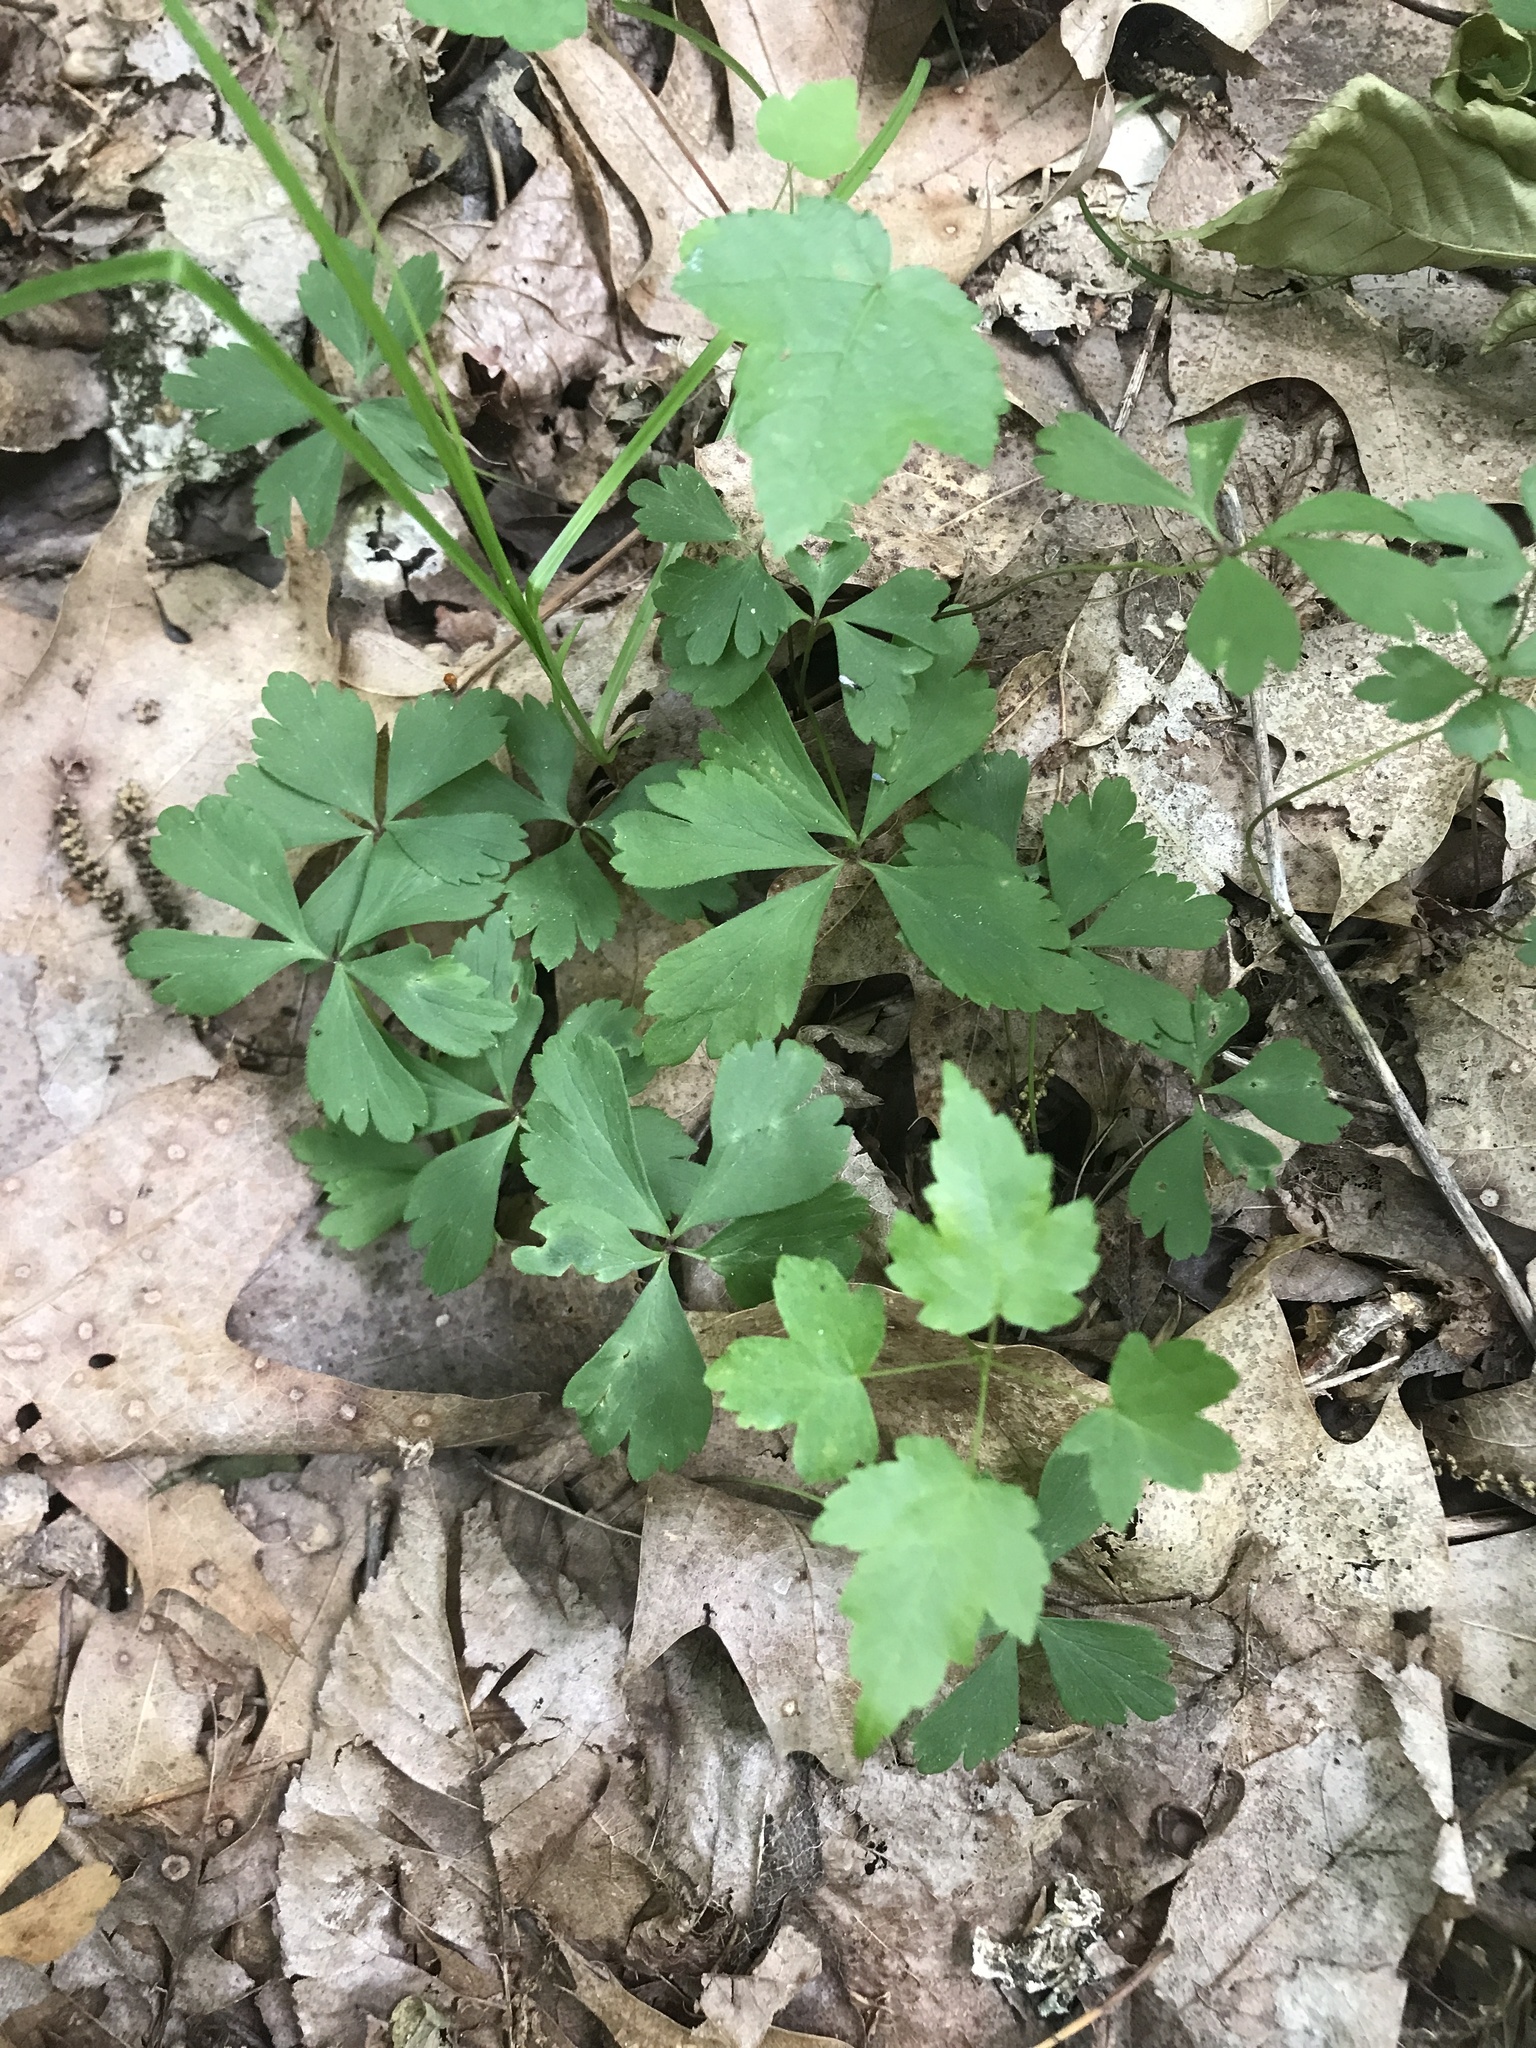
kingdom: Plantae
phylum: Tracheophyta
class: Magnoliopsida
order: Ranunculales
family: Ranunculaceae
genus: Anemone
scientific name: Anemone quinquefolia
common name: Wood anemone
